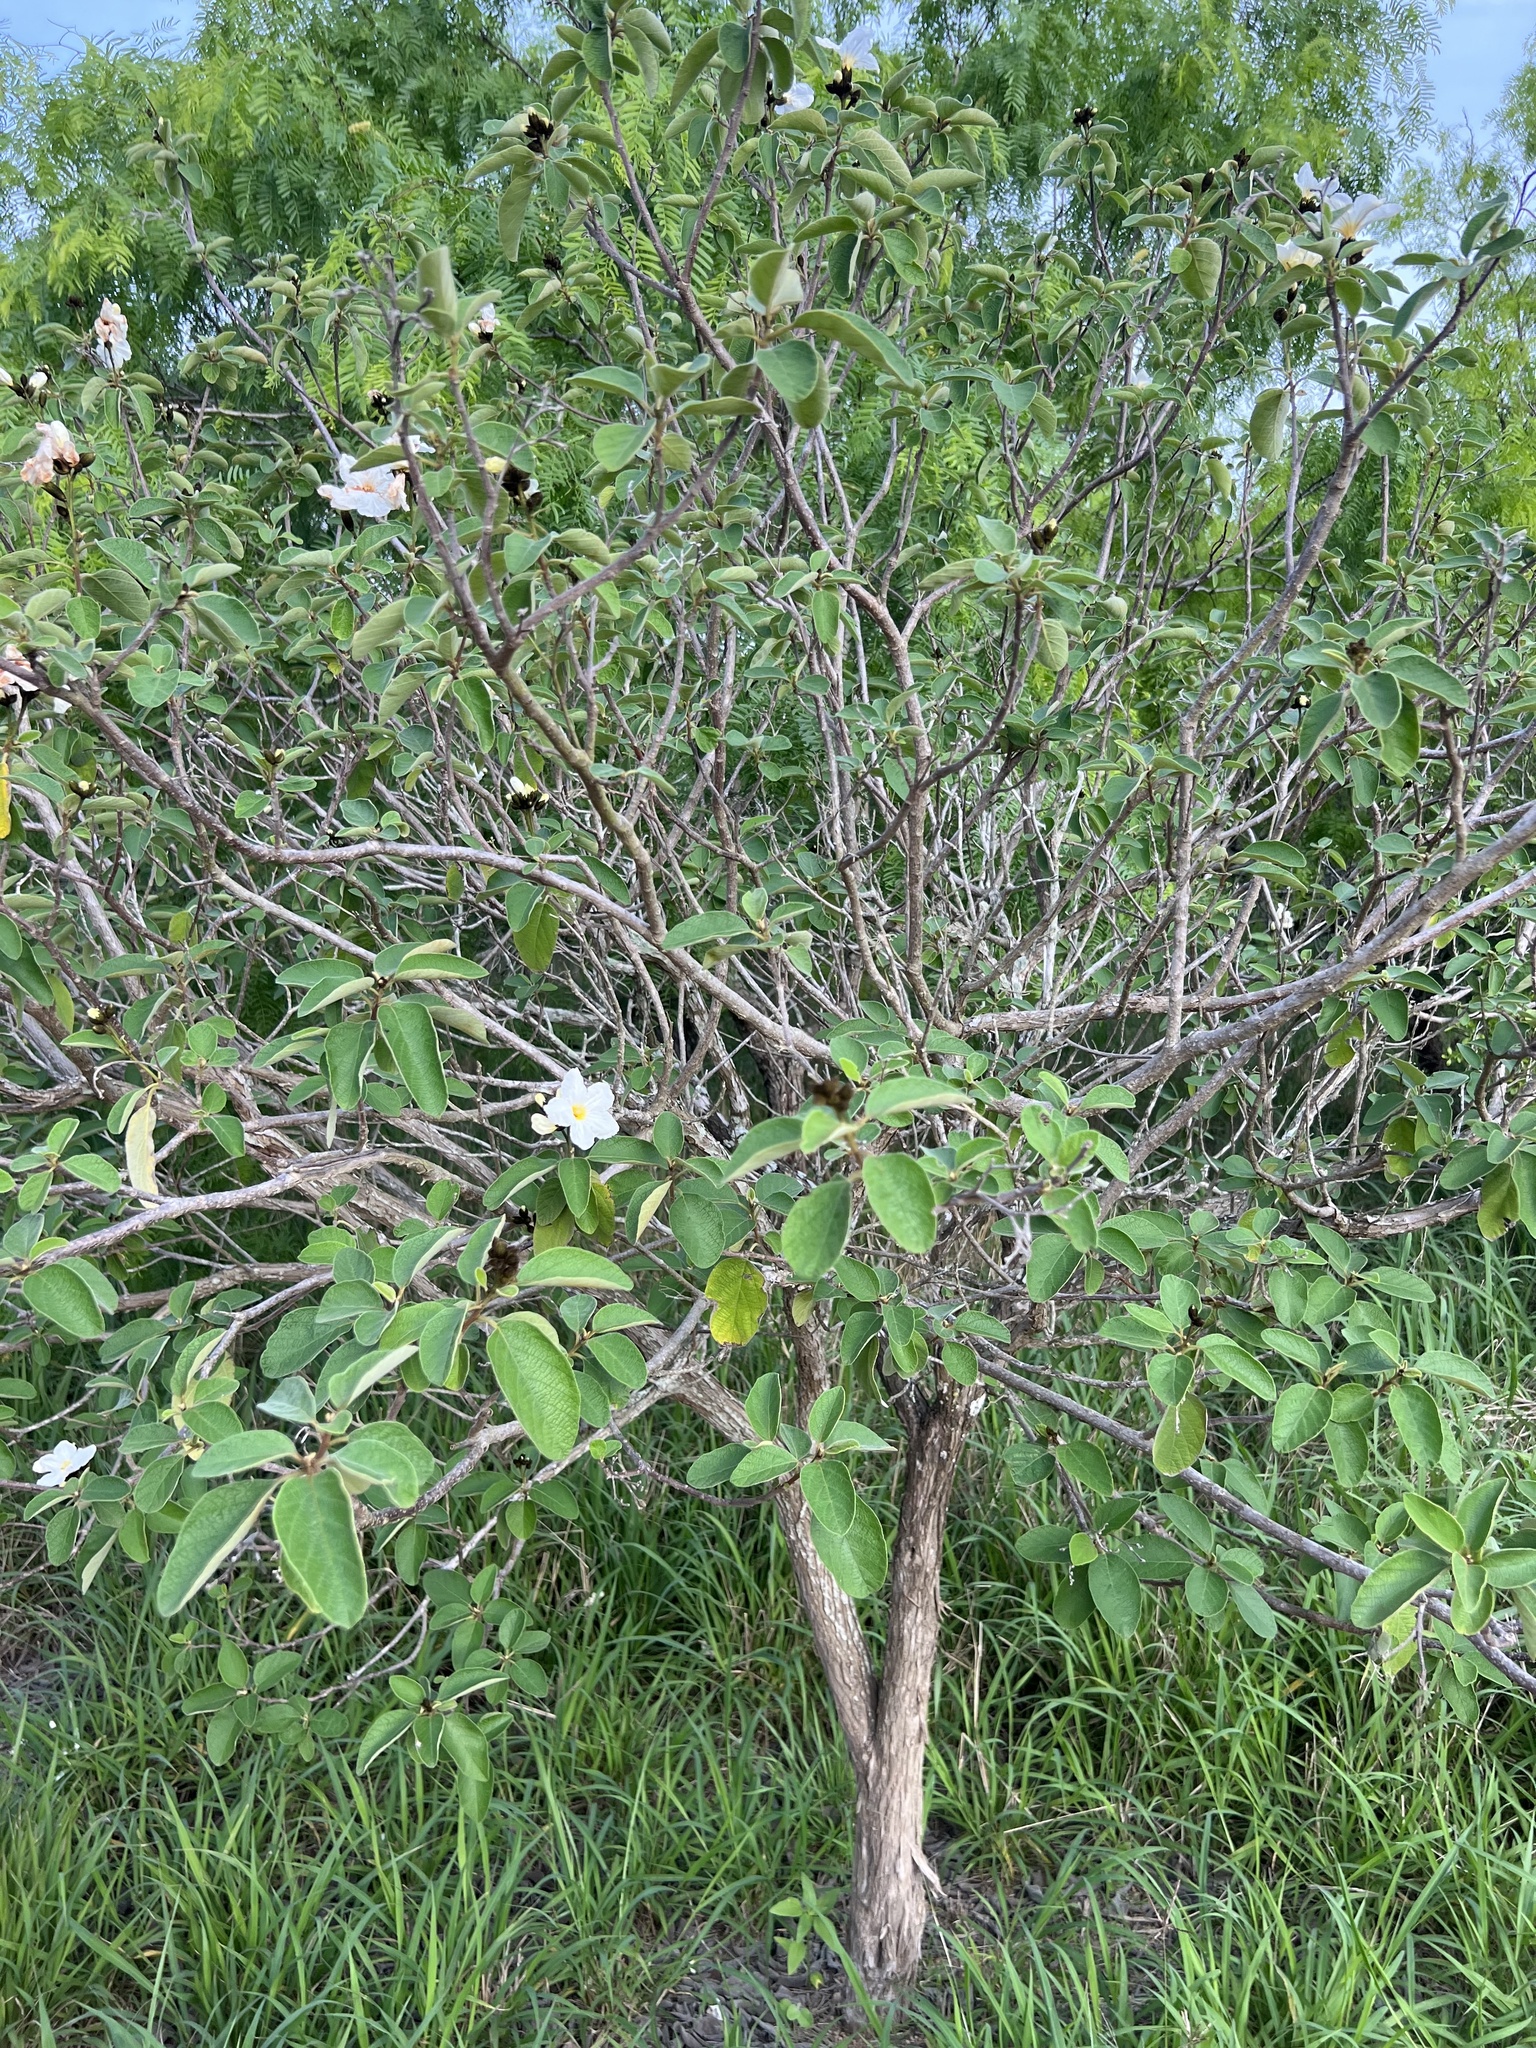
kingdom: Plantae
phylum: Tracheophyta
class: Magnoliopsida
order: Boraginales
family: Cordiaceae
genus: Cordia
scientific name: Cordia boissieri
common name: Mexican-olive
